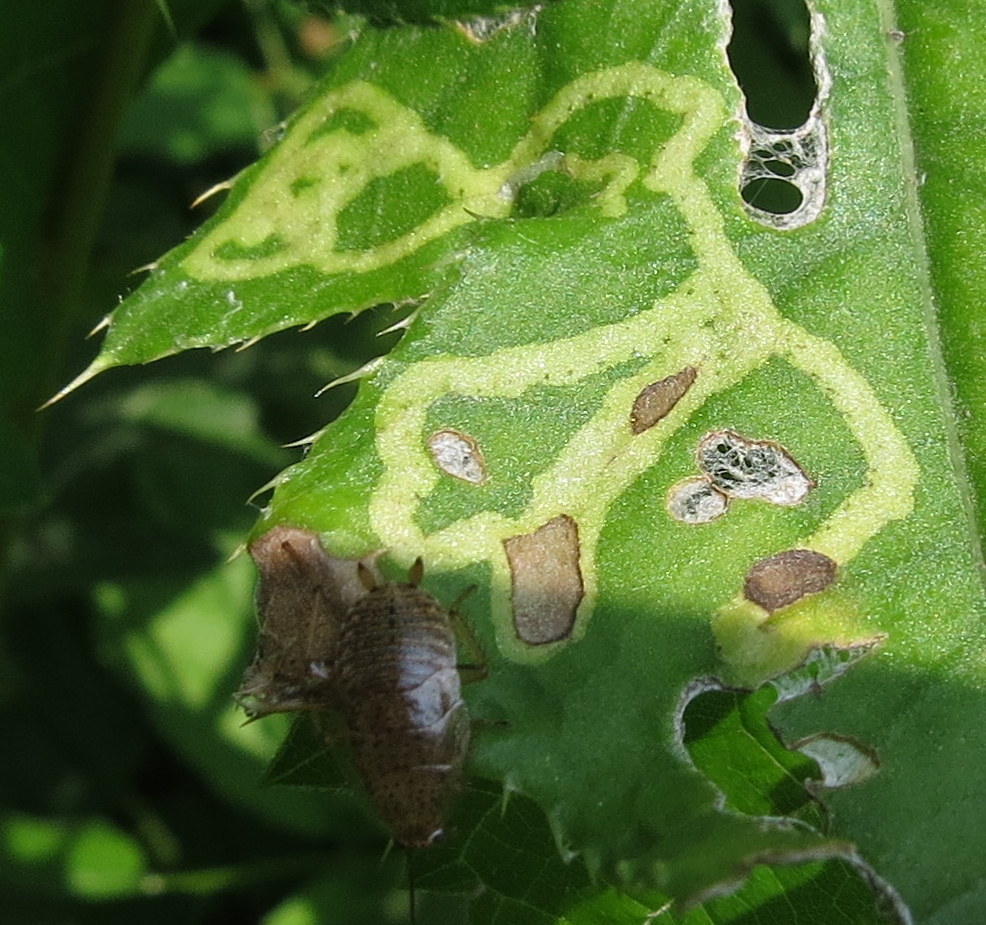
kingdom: Animalia
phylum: Arthropoda
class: Insecta
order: Diptera
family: Agromyzidae
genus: Phytomyza
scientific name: Phytomyza
